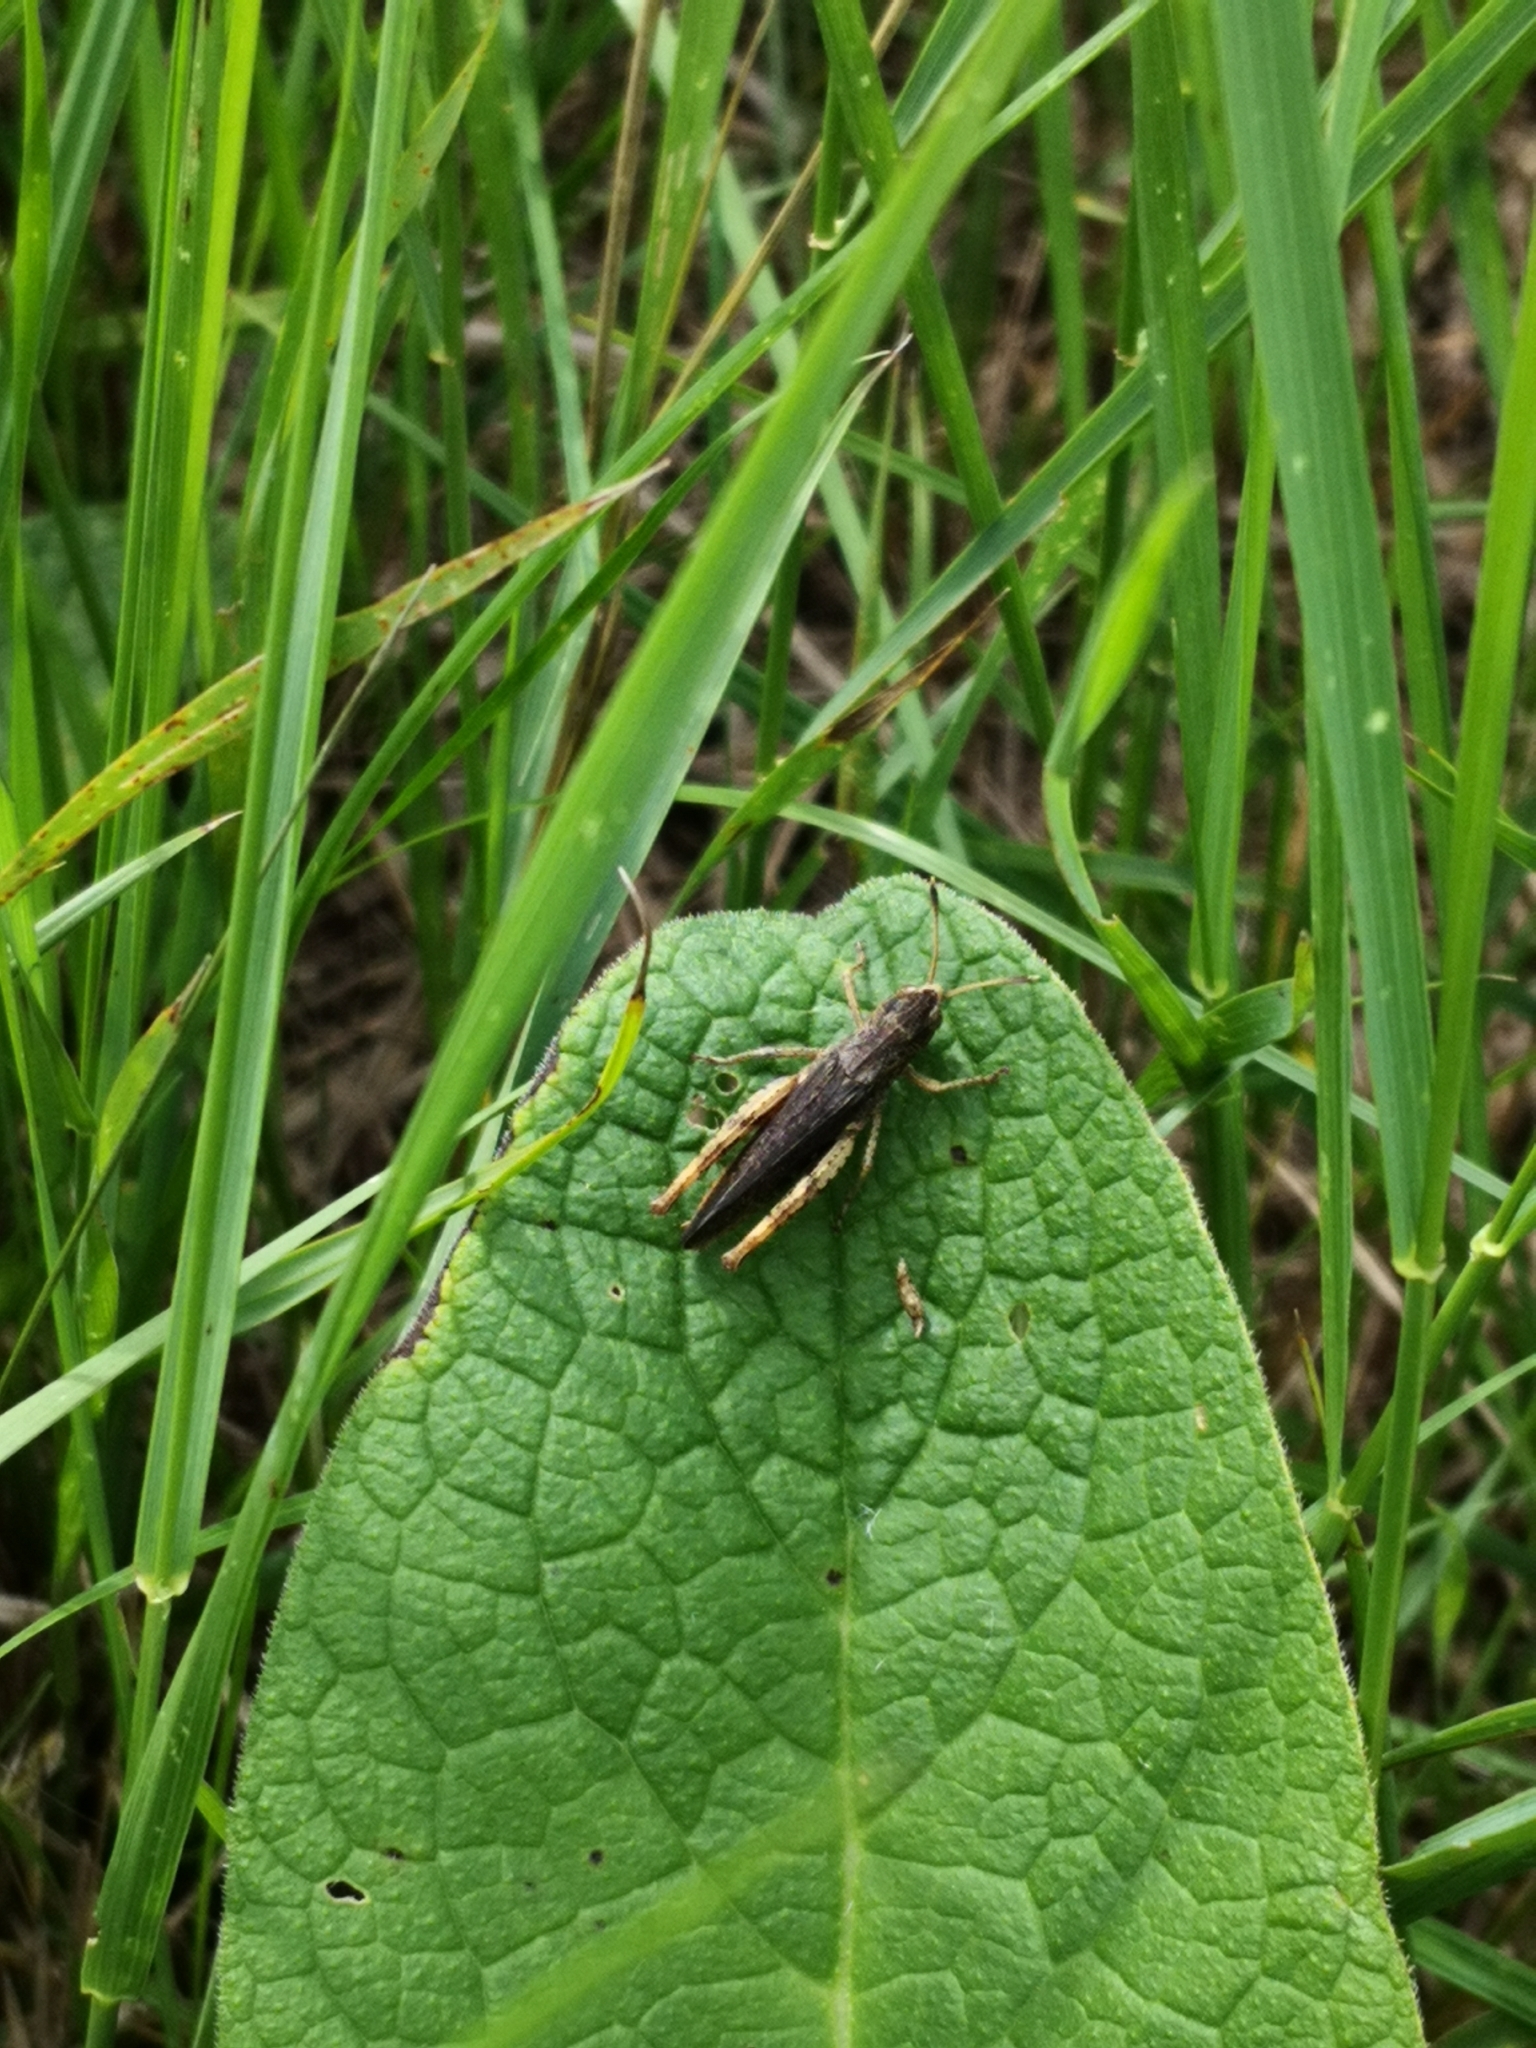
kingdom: Animalia
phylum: Arthropoda
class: Insecta
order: Orthoptera
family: Acrididae
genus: Gomphocerippus
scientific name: Gomphocerippus rufus
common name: Rufous grasshopper
